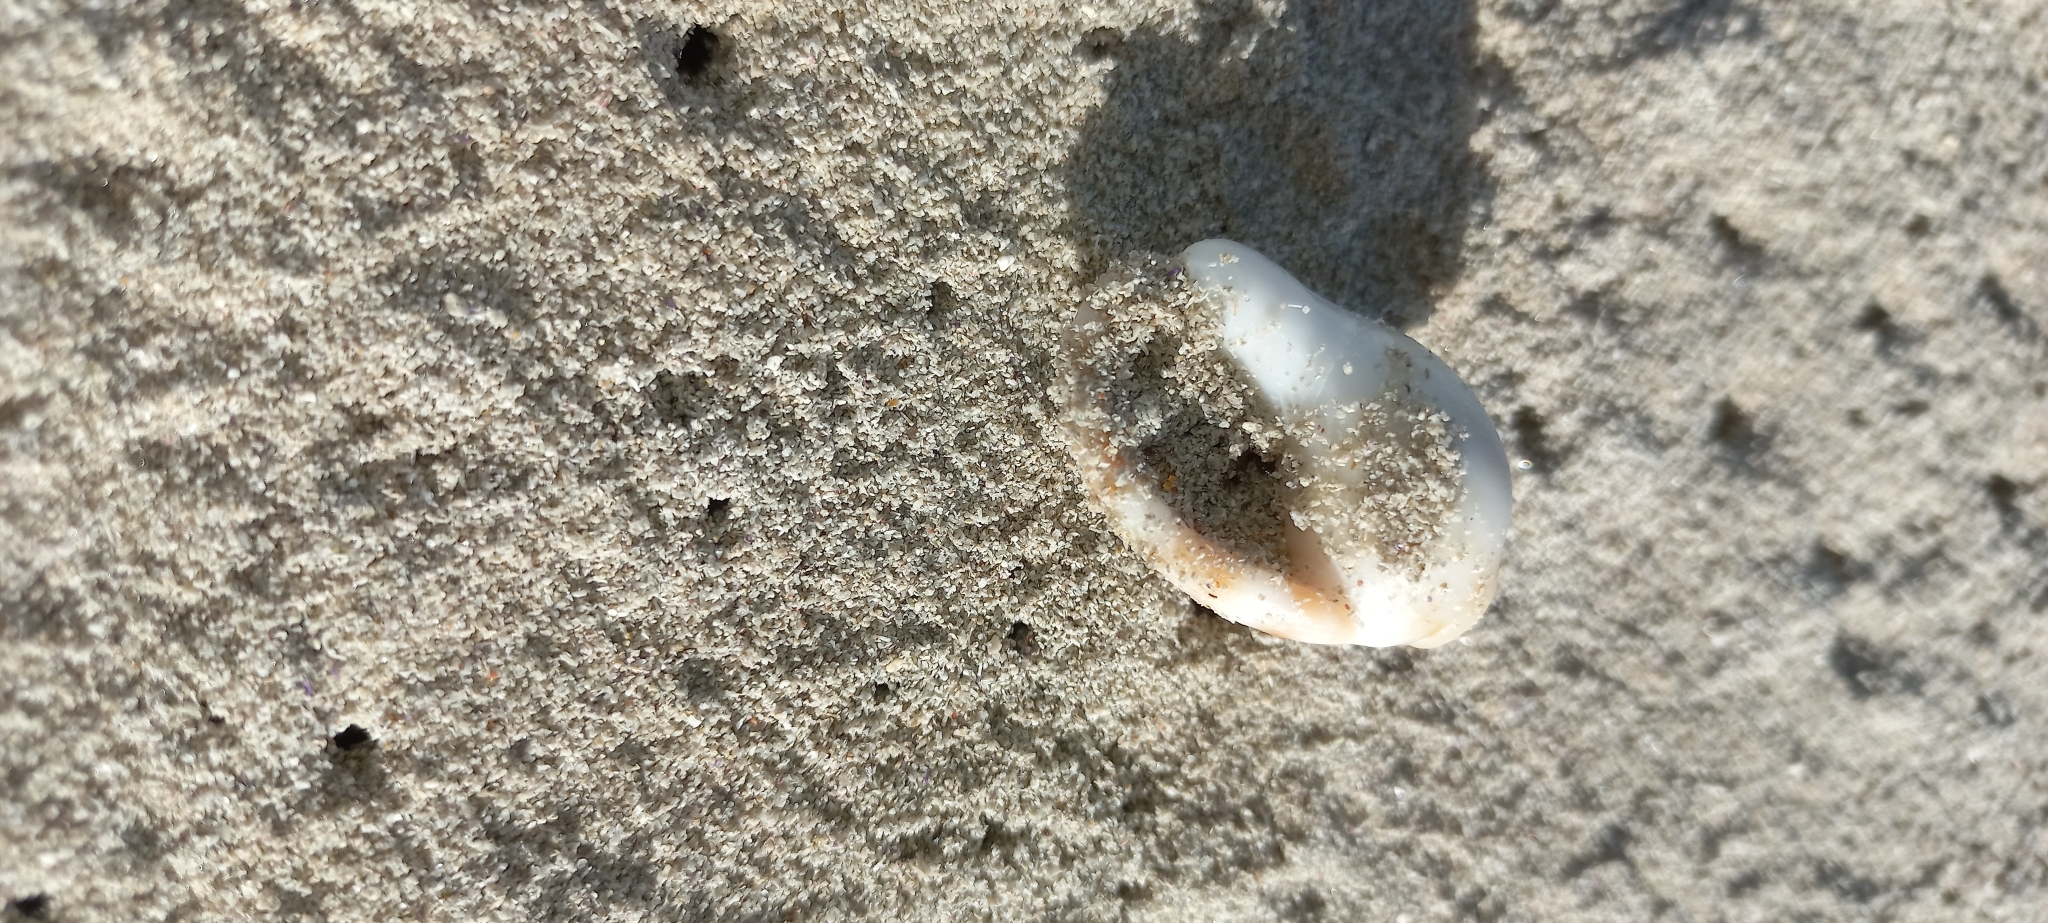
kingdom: Animalia
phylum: Mollusca
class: Gastropoda
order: Littorinimorpha
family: Cassidae
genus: Semicassis
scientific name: Semicassis zeylanica
